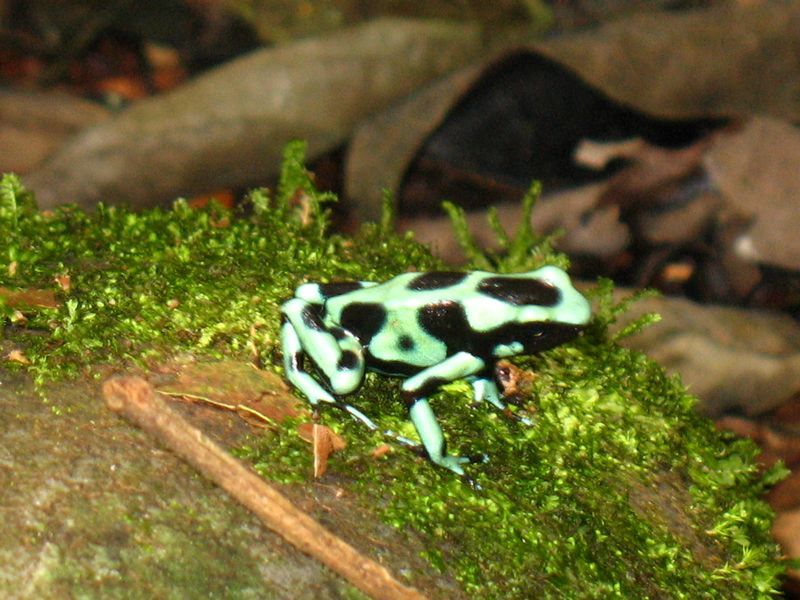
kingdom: Animalia
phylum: Chordata
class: Amphibia
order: Anura
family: Dendrobatidae
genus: Dendrobates
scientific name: Dendrobates auratus
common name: Green and black poison dart frog
